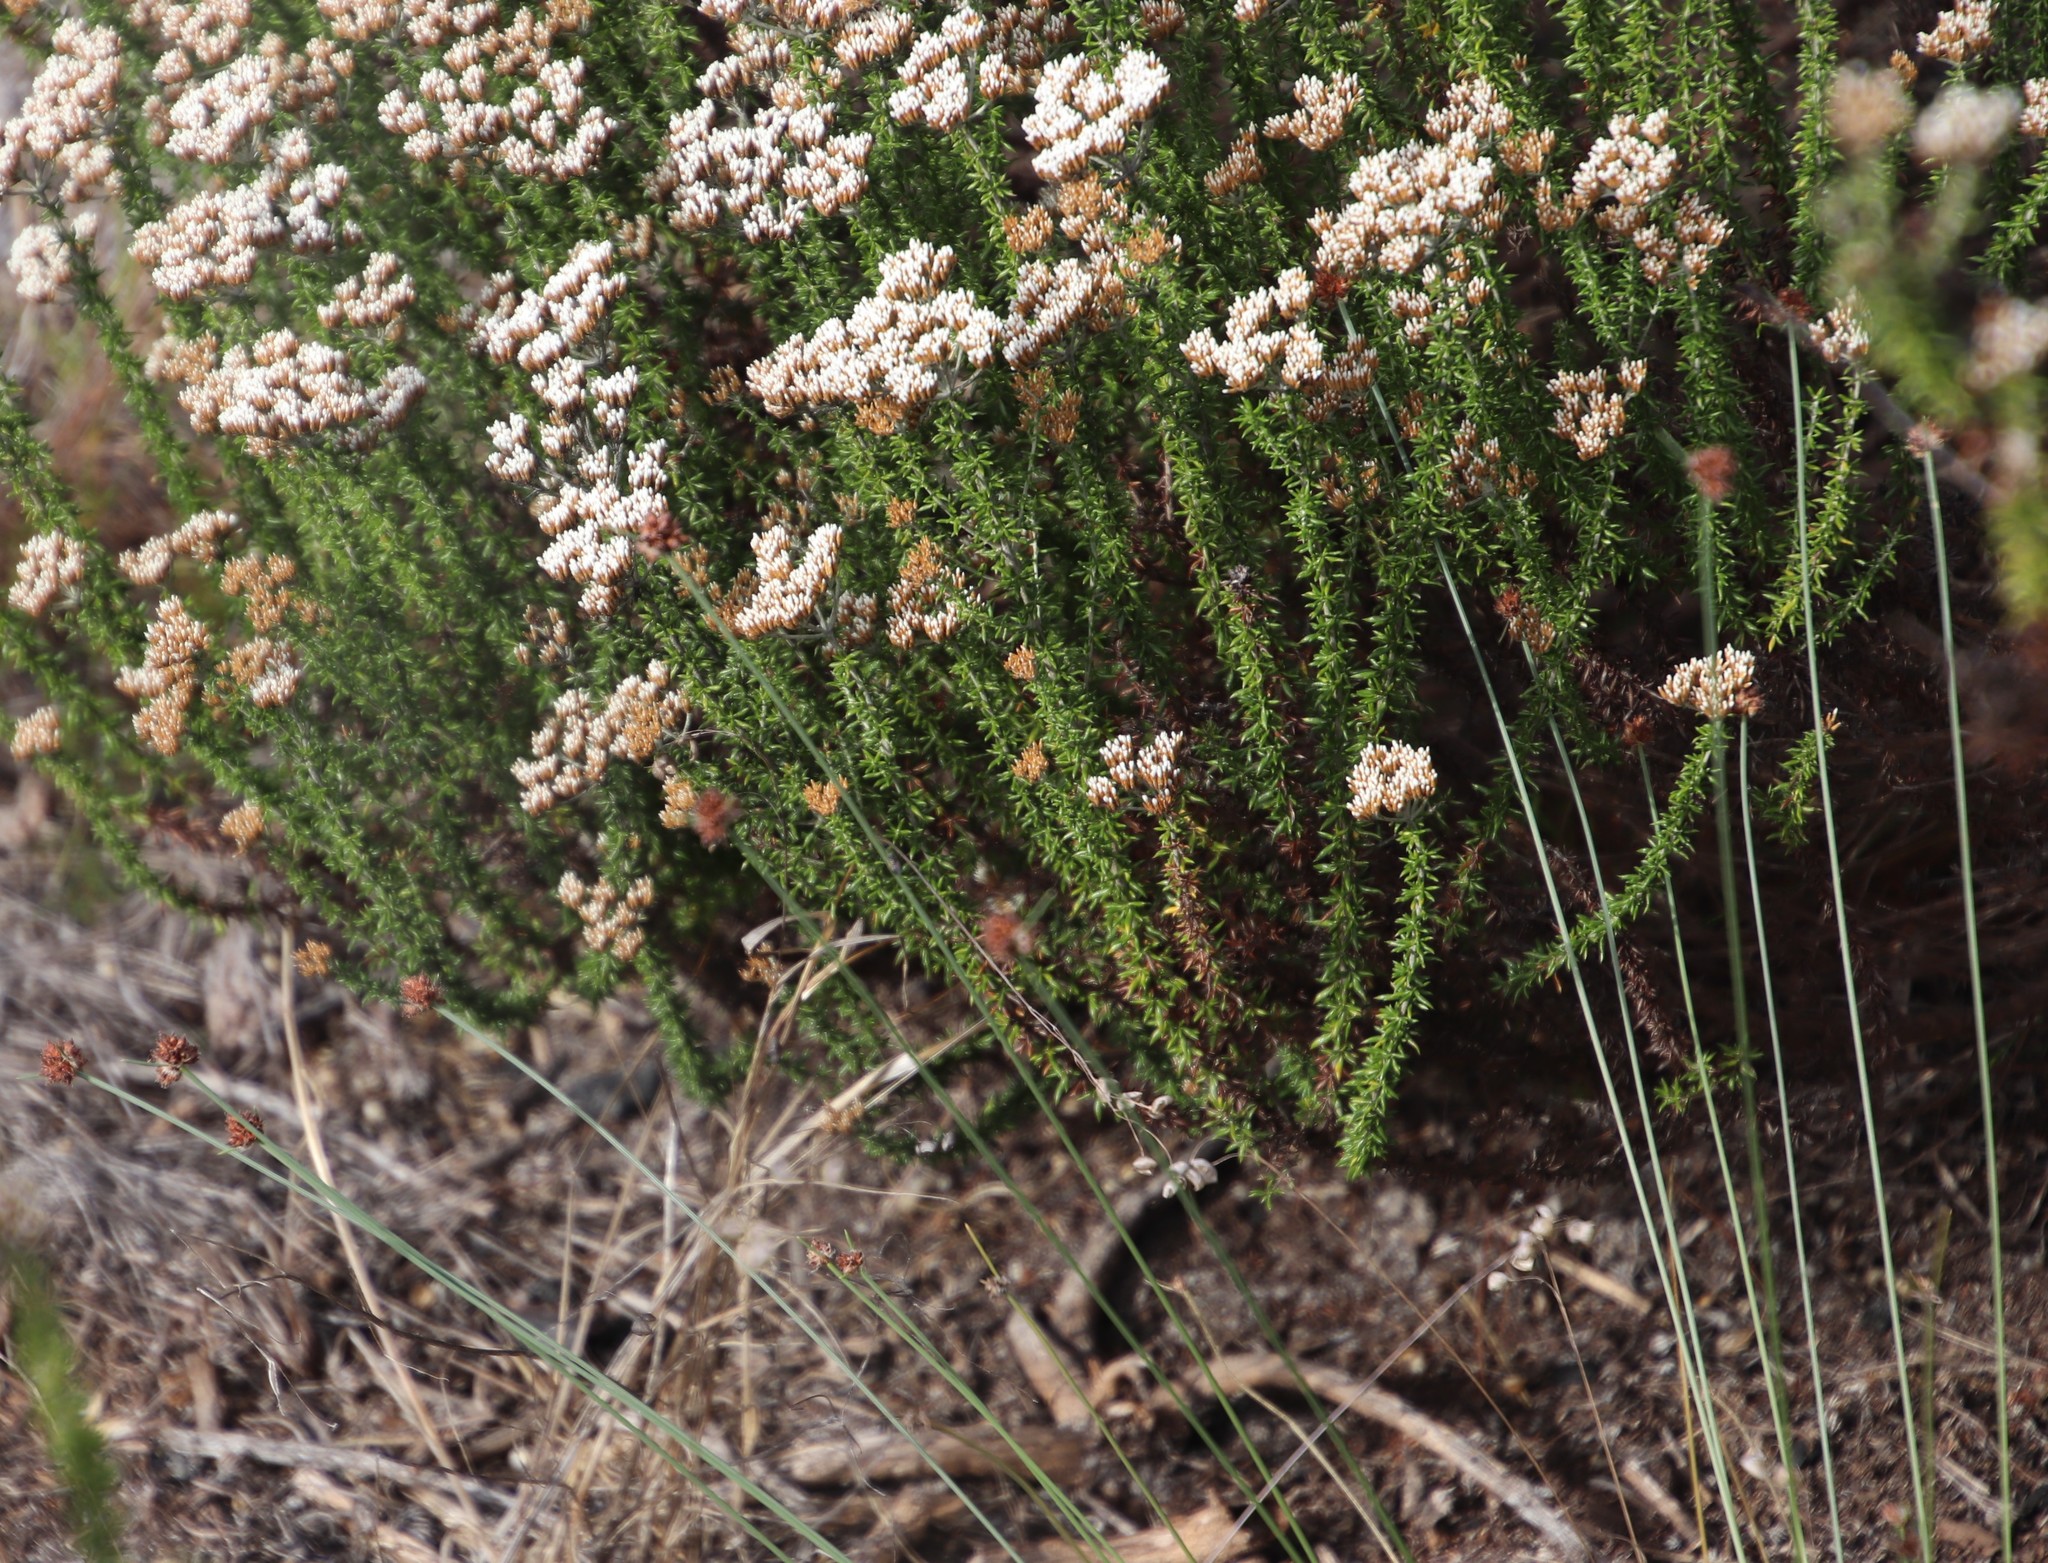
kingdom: Plantae
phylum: Tracheophyta
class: Liliopsida
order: Poales
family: Cyperaceae
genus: Ficinia
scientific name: Ficinia paradoxa
